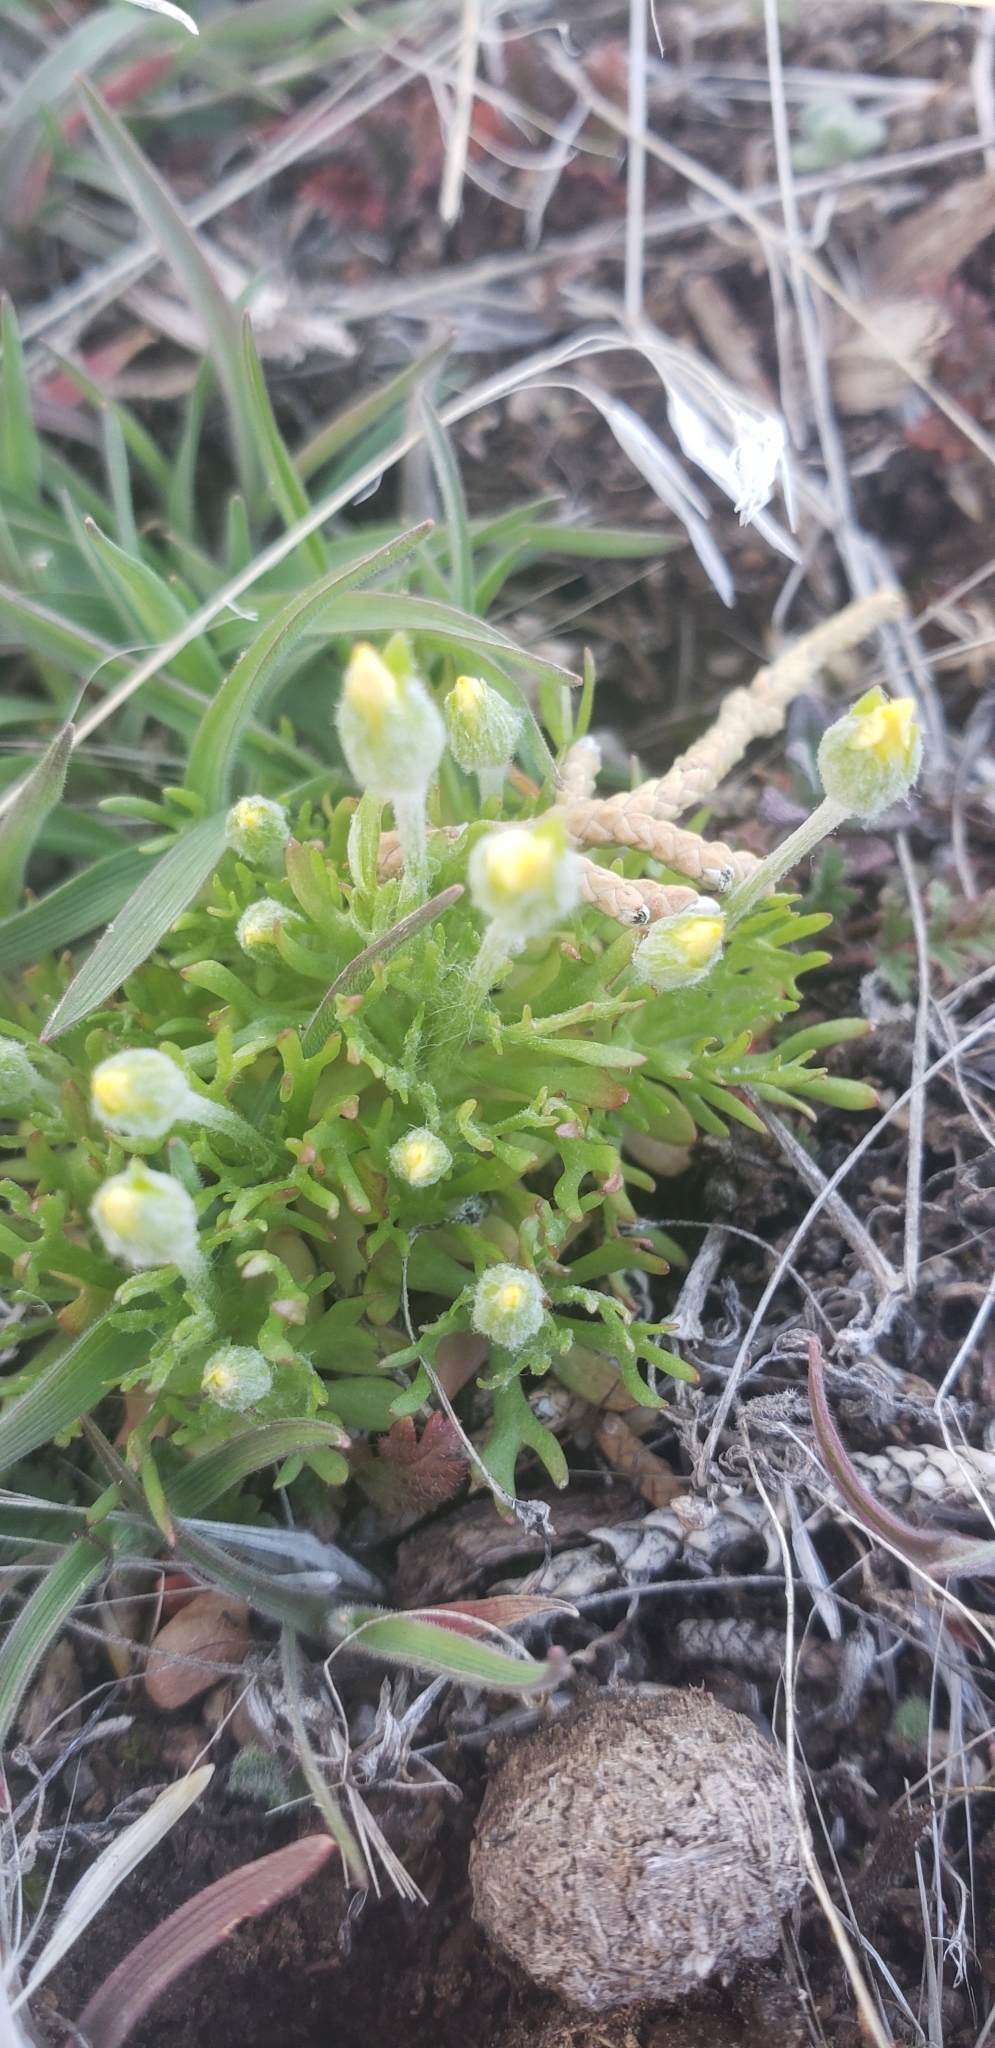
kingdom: Plantae
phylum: Tracheophyta
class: Magnoliopsida
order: Ranunculales
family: Ranunculaceae
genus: Ceratocephala
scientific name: Ceratocephala orthoceras
